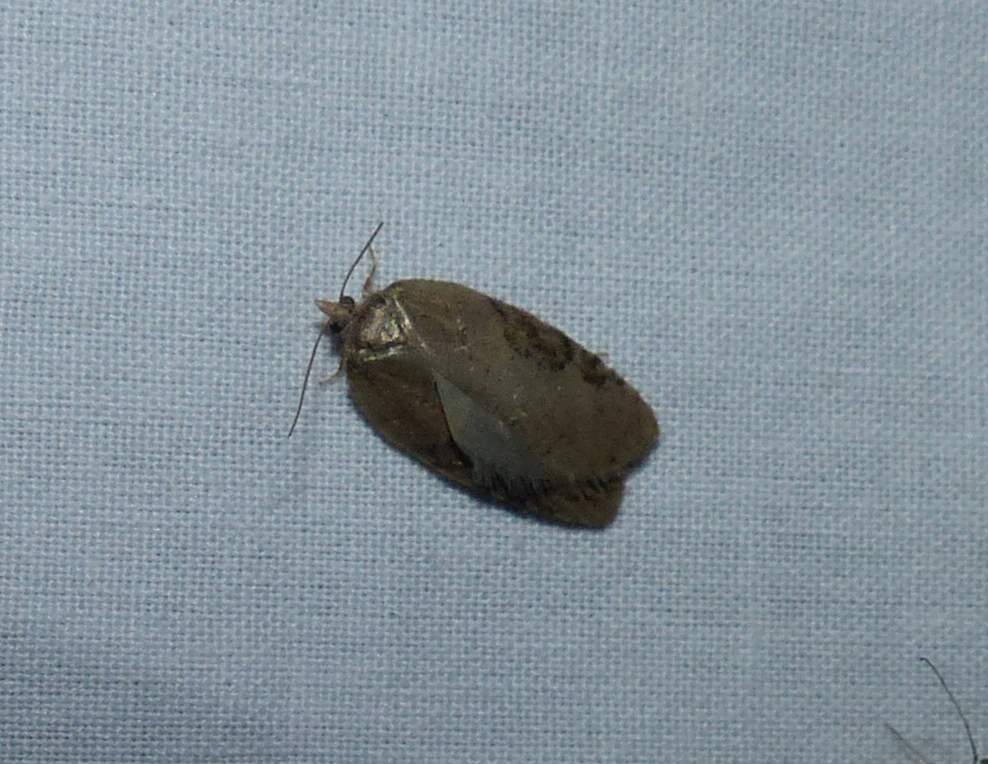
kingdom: Animalia
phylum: Arthropoda
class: Insecta
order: Lepidoptera
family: Tortricidae
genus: Acleris
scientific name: Acleris chalybeana
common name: Lesser maple leafroller
